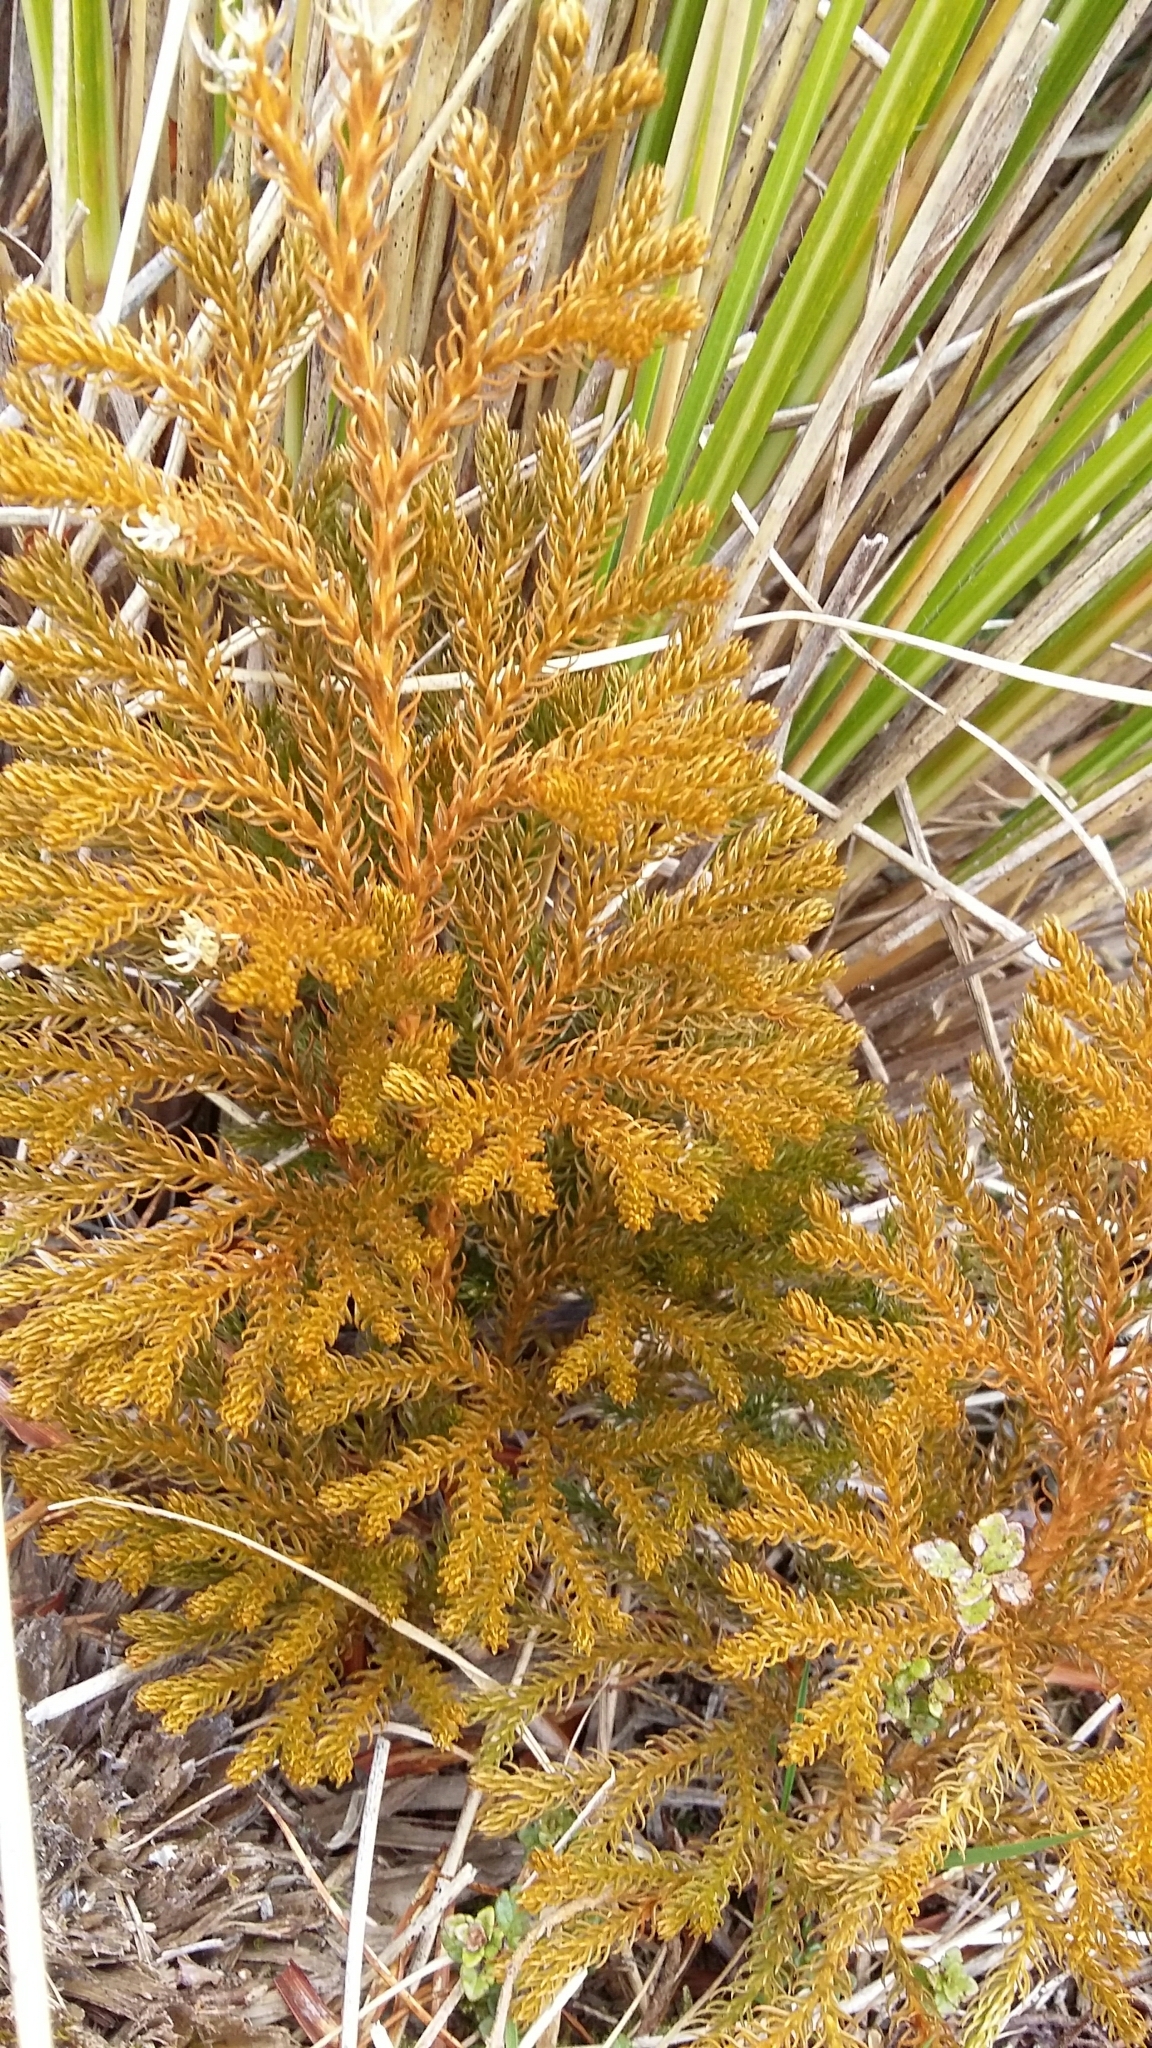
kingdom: Plantae
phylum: Tracheophyta
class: Lycopodiopsida
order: Lycopodiales
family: Lycopodiaceae
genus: Austrolycopodium
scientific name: Austrolycopodium fastigiatum
